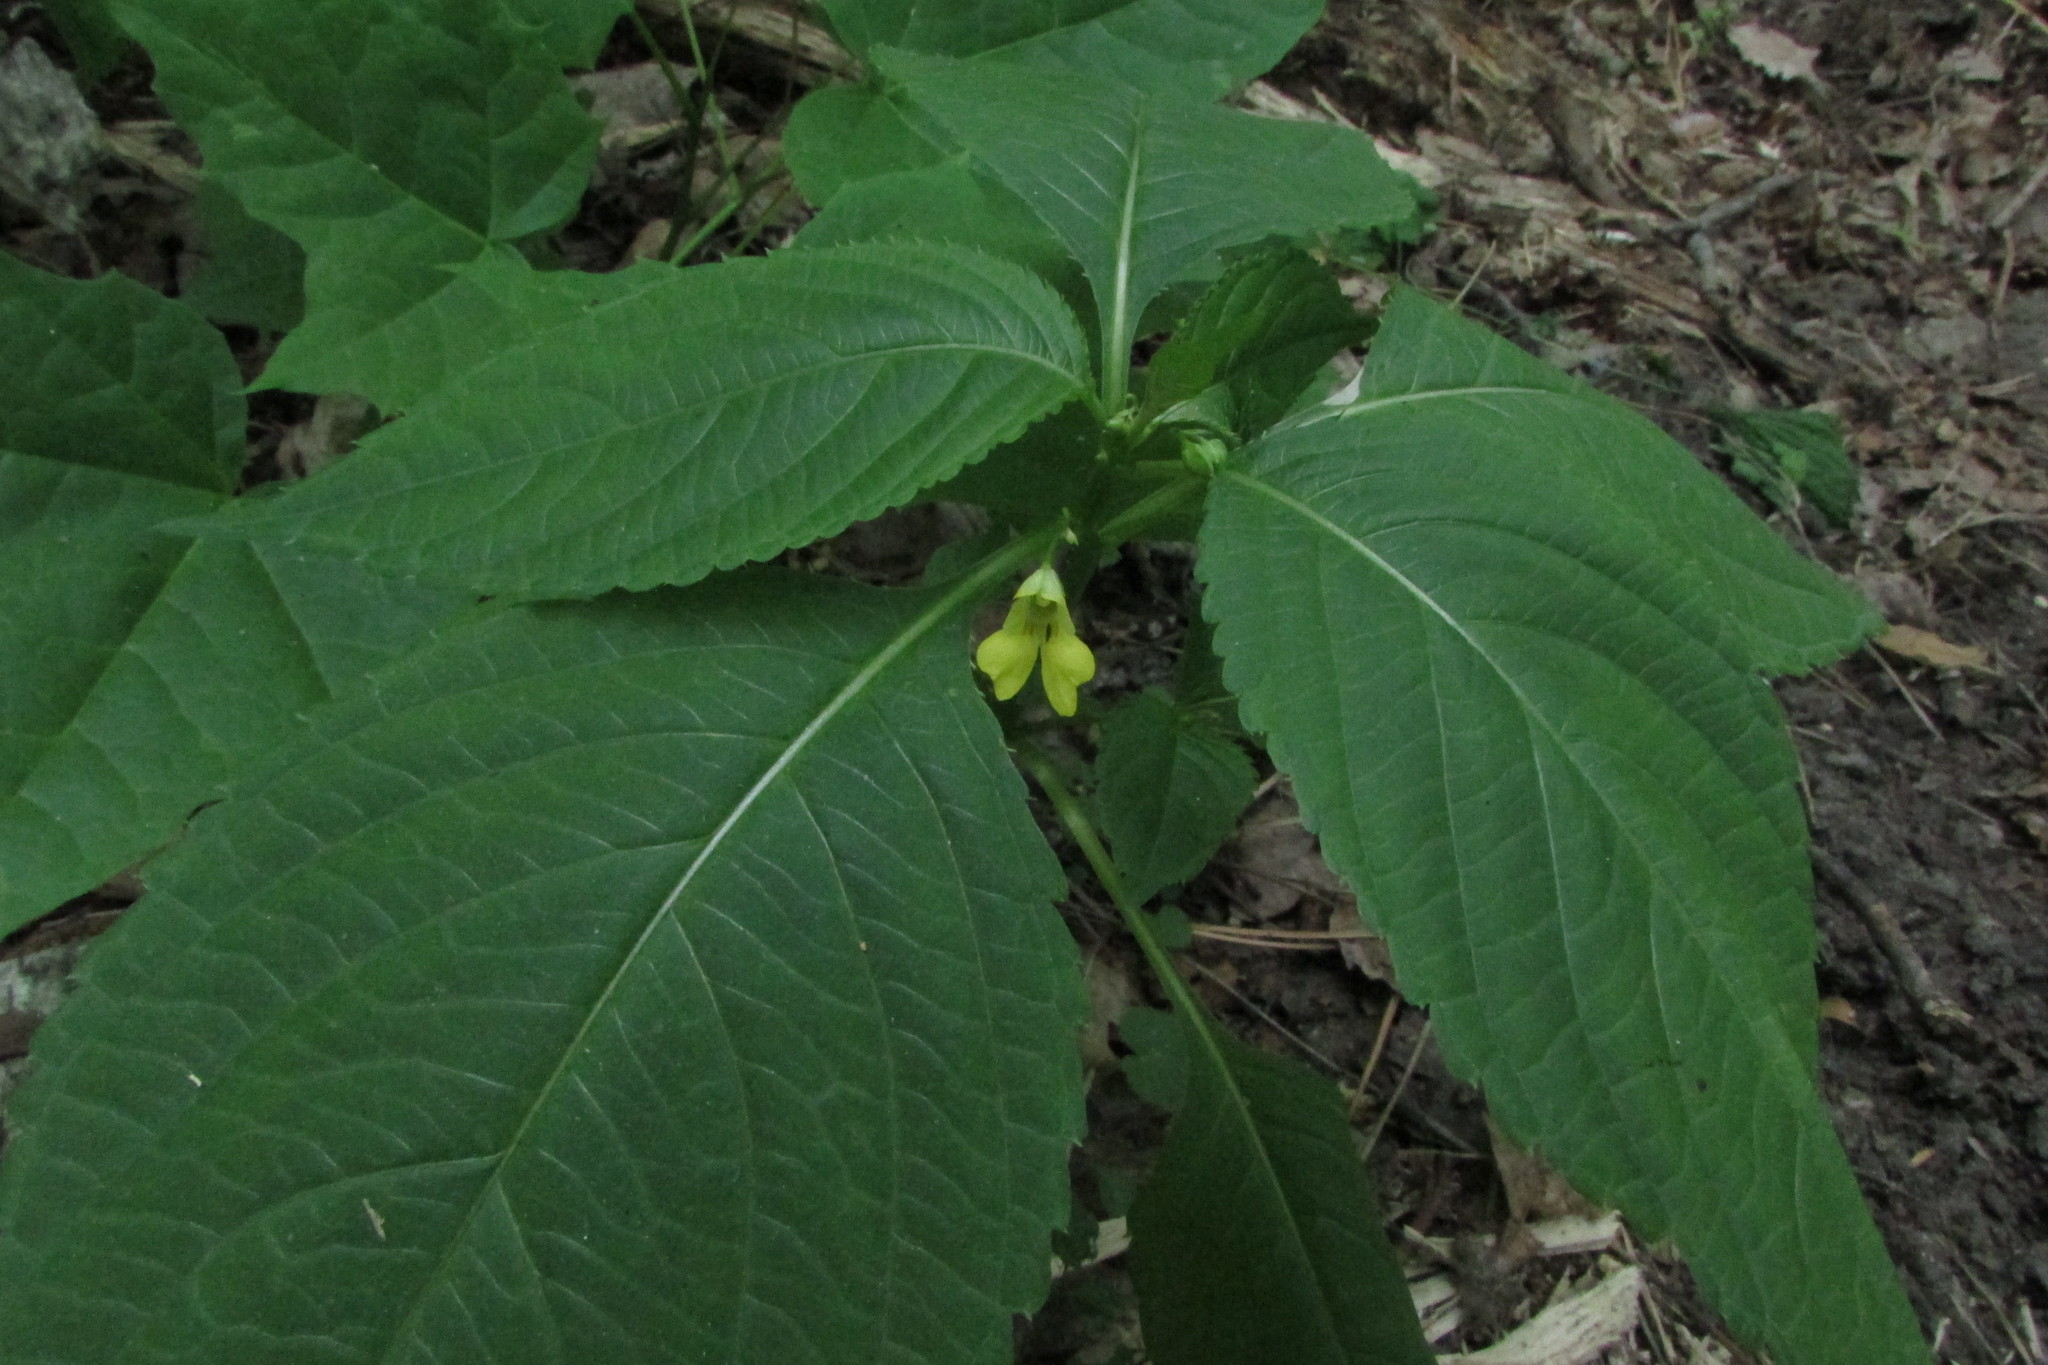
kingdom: Plantae
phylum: Tracheophyta
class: Magnoliopsida
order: Ericales
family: Balsaminaceae
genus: Impatiens
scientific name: Impatiens parviflora
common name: Small balsam
